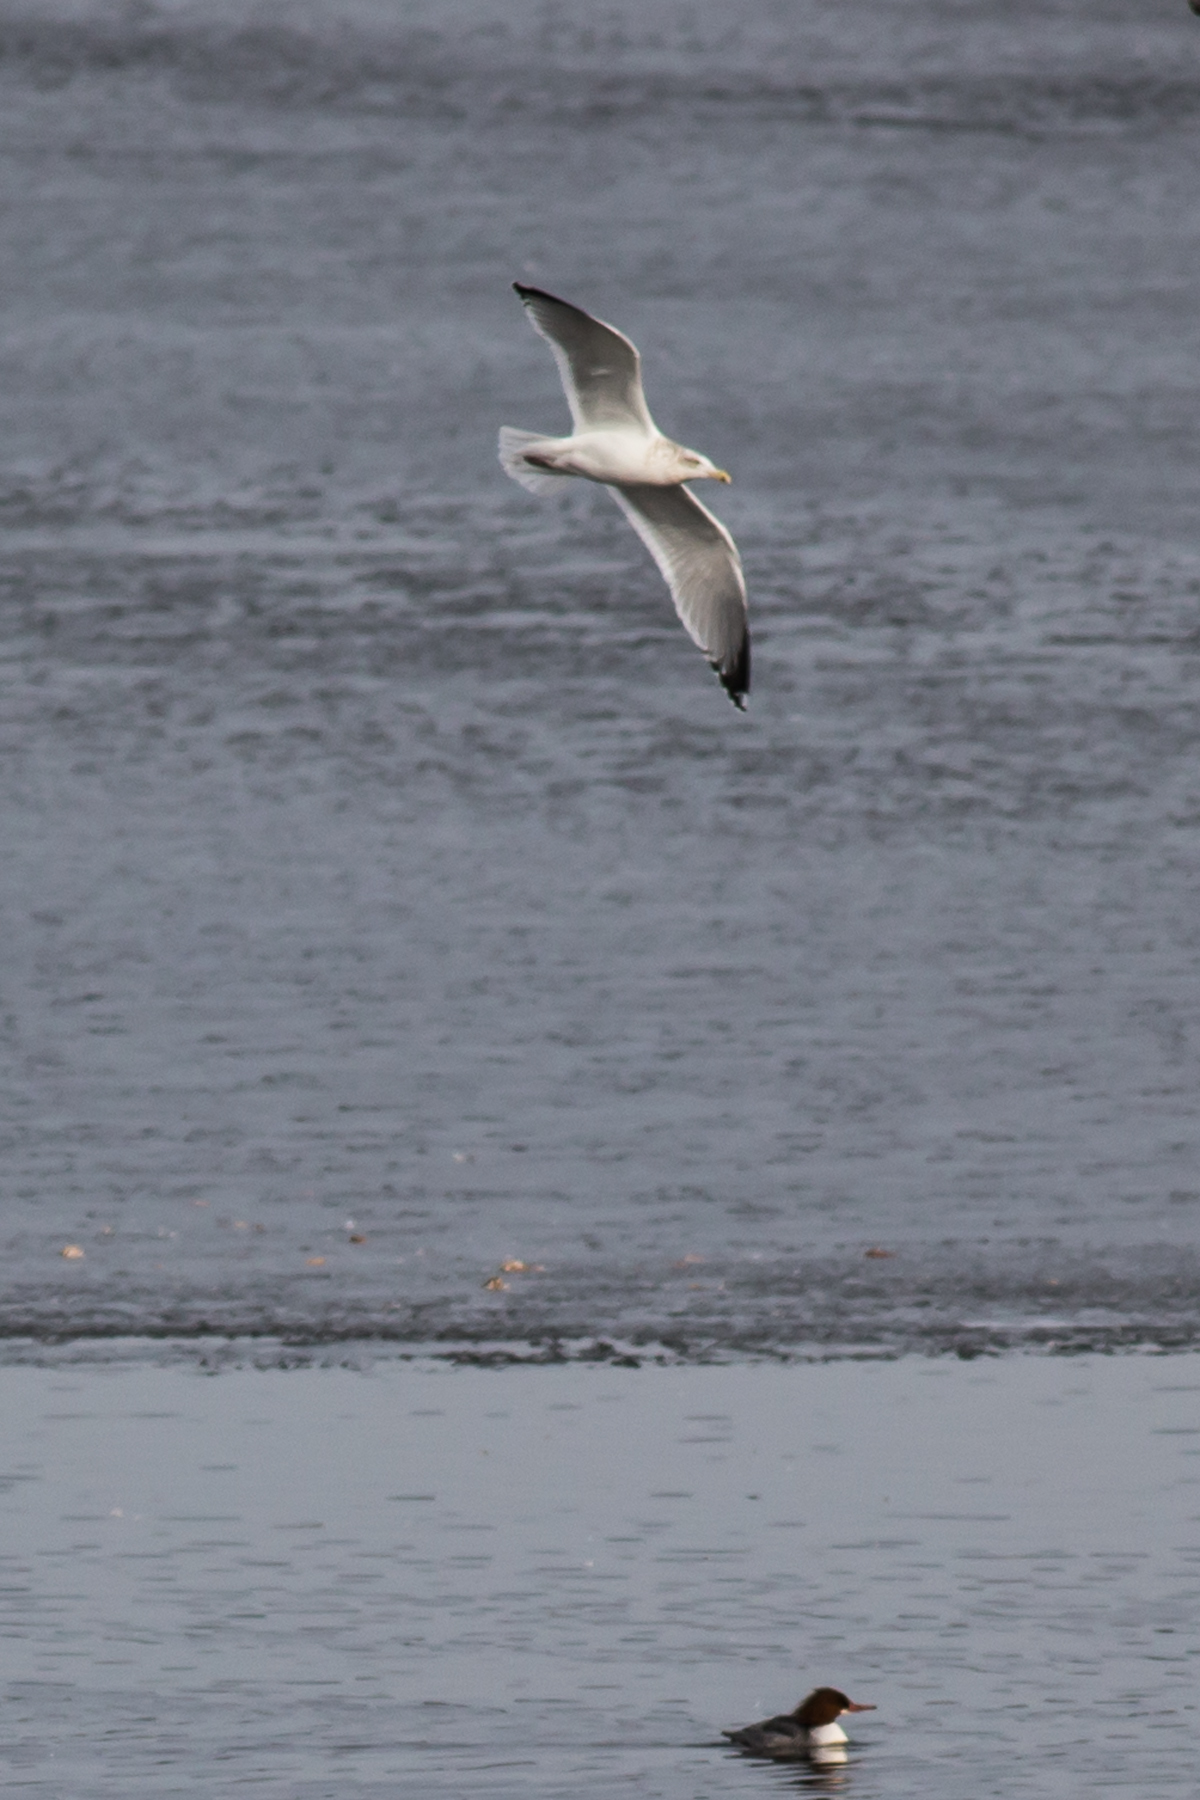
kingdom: Animalia
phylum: Chordata
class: Aves
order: Charadriiformes
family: Laridae
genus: Larus
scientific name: Larus argentatus
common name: Herring gull
